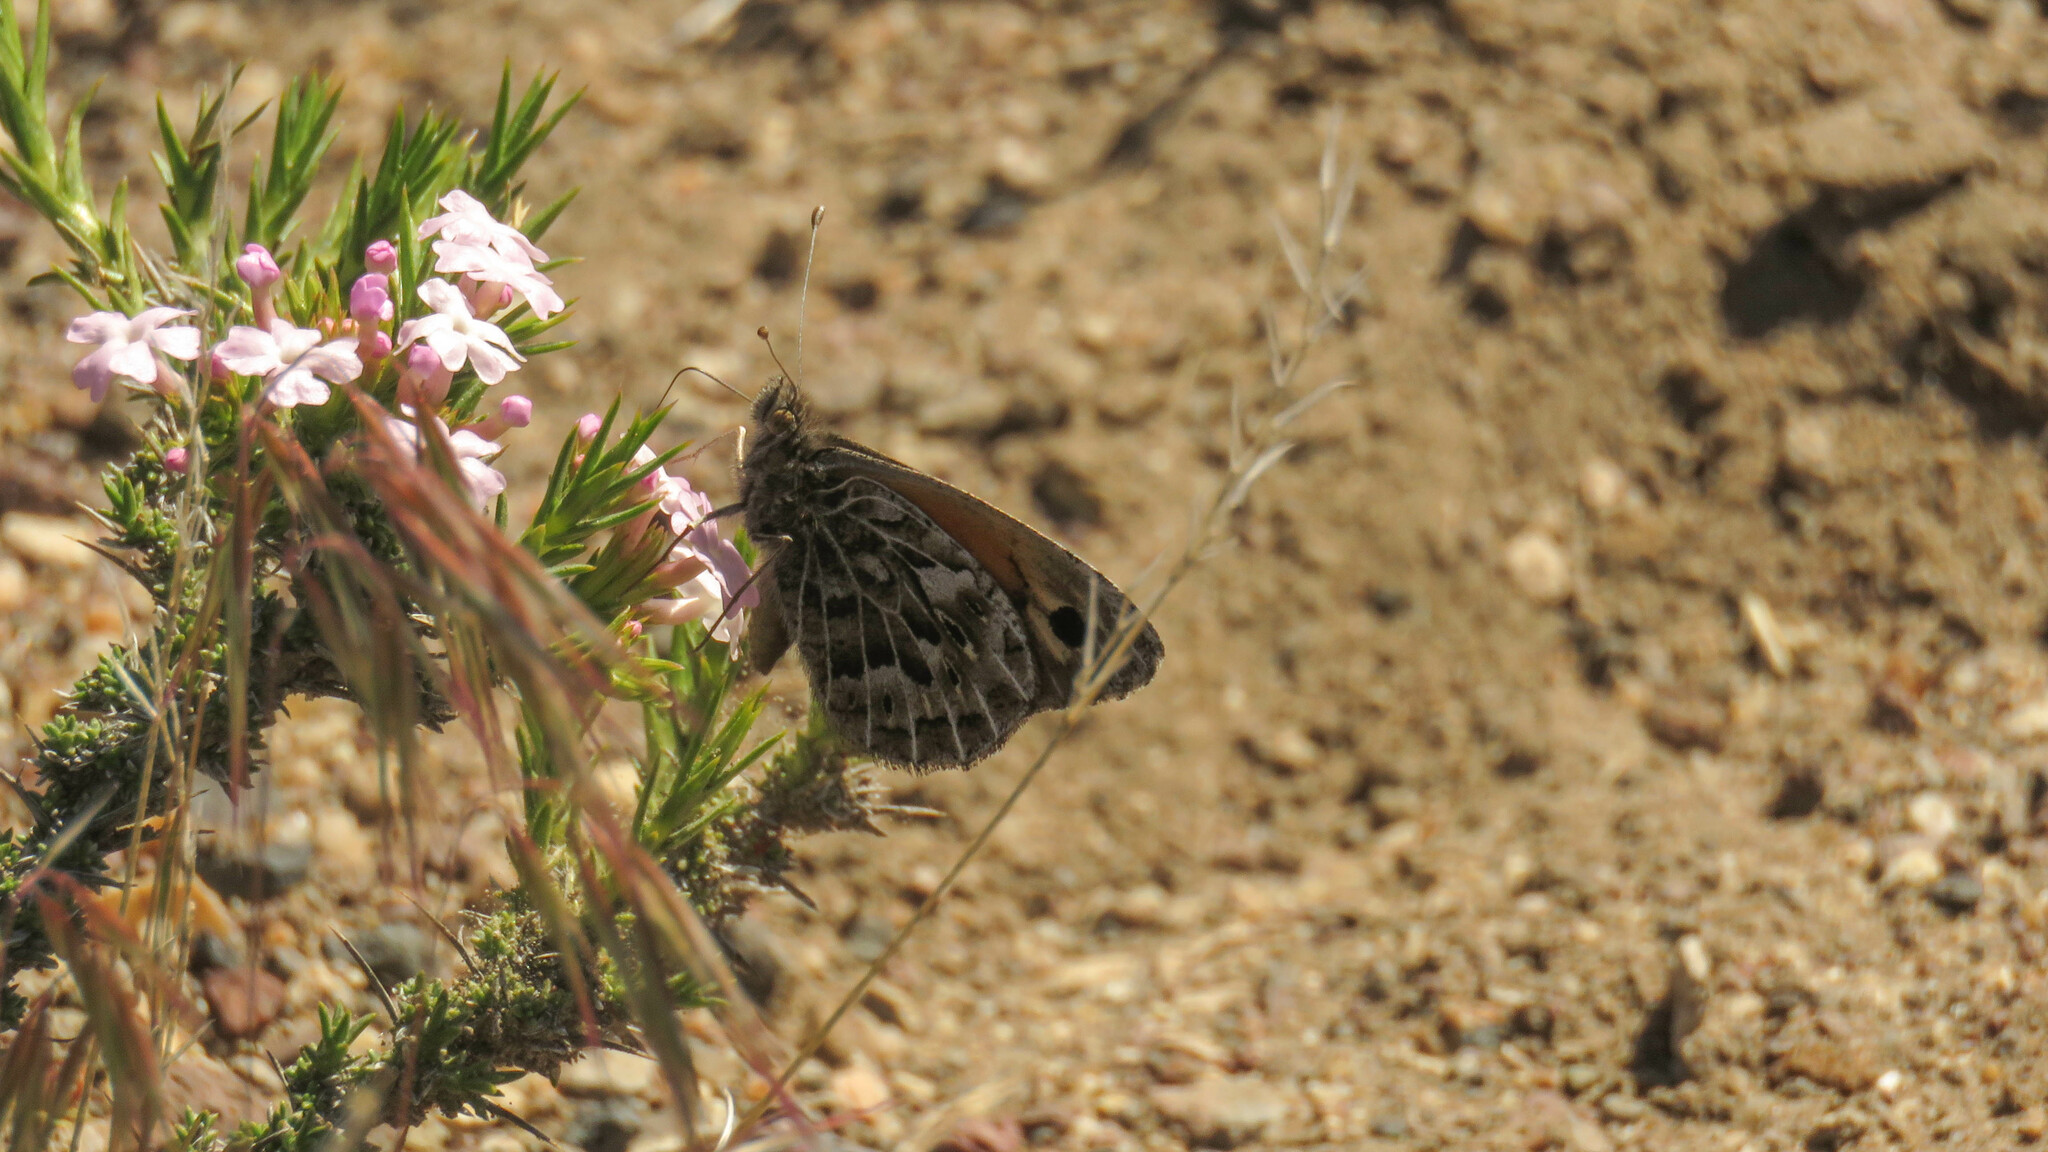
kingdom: Animalia
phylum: Arthropoda
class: Insecta
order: Lepidoptera
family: Nymphalidae
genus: Argyrophorus
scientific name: Argyrophorus
